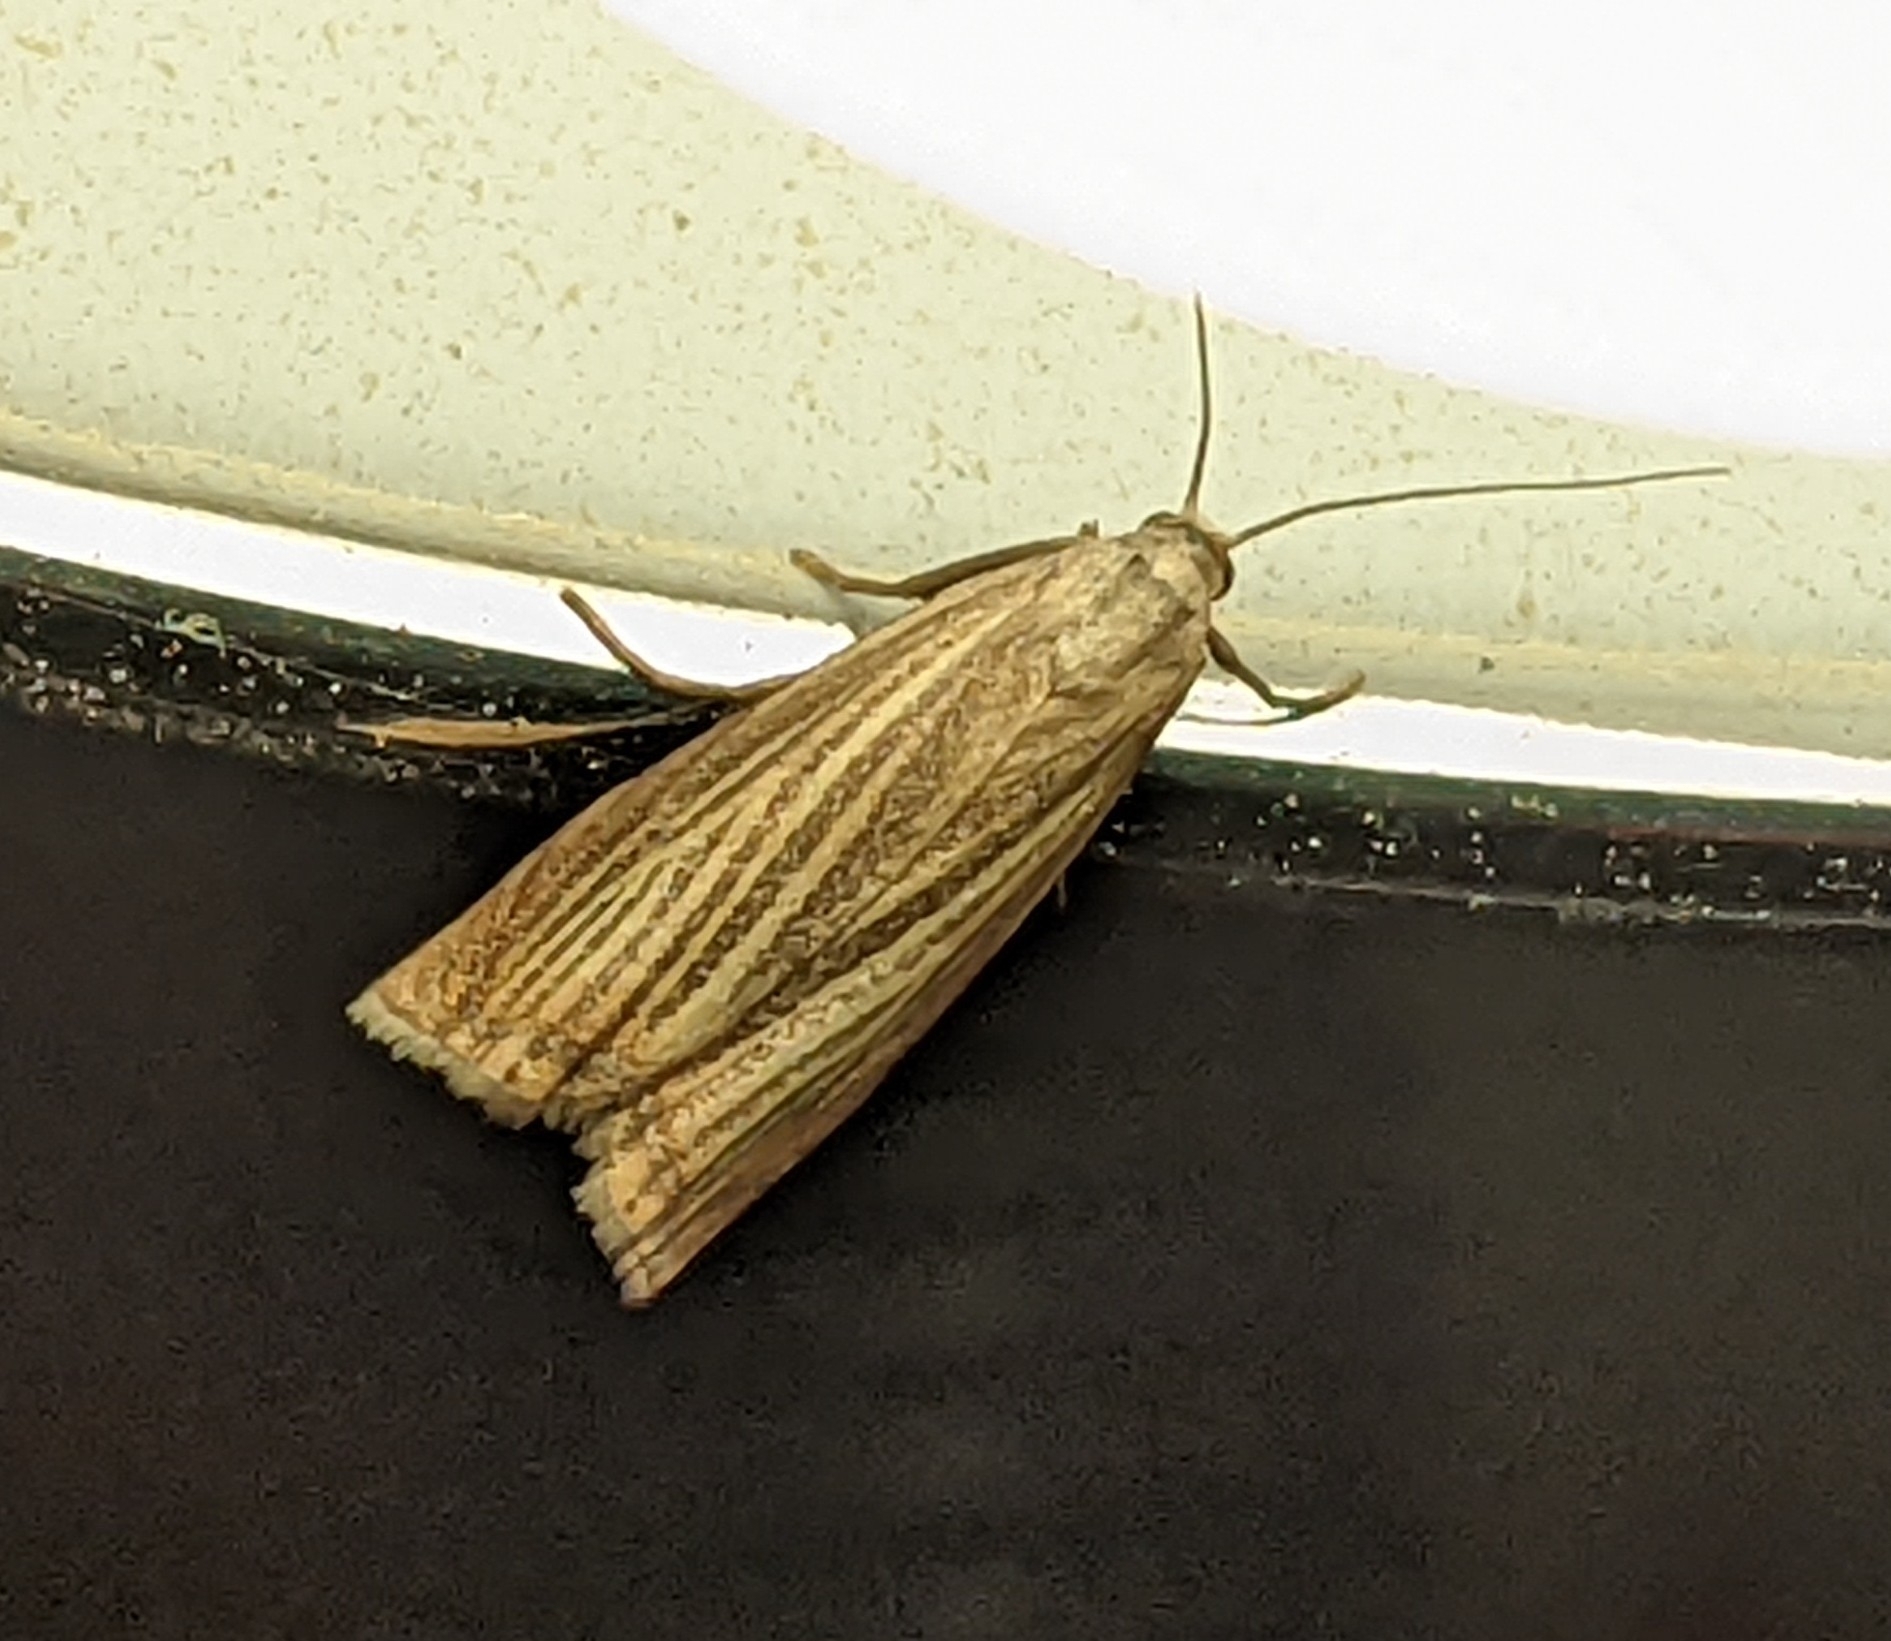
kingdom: Animalia
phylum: Arthropoda
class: Insecta
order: Lepidoptera
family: Crambidae
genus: Chrysoteuchia
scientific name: Chrysoteuchia culmella
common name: Garden grass-veneer
